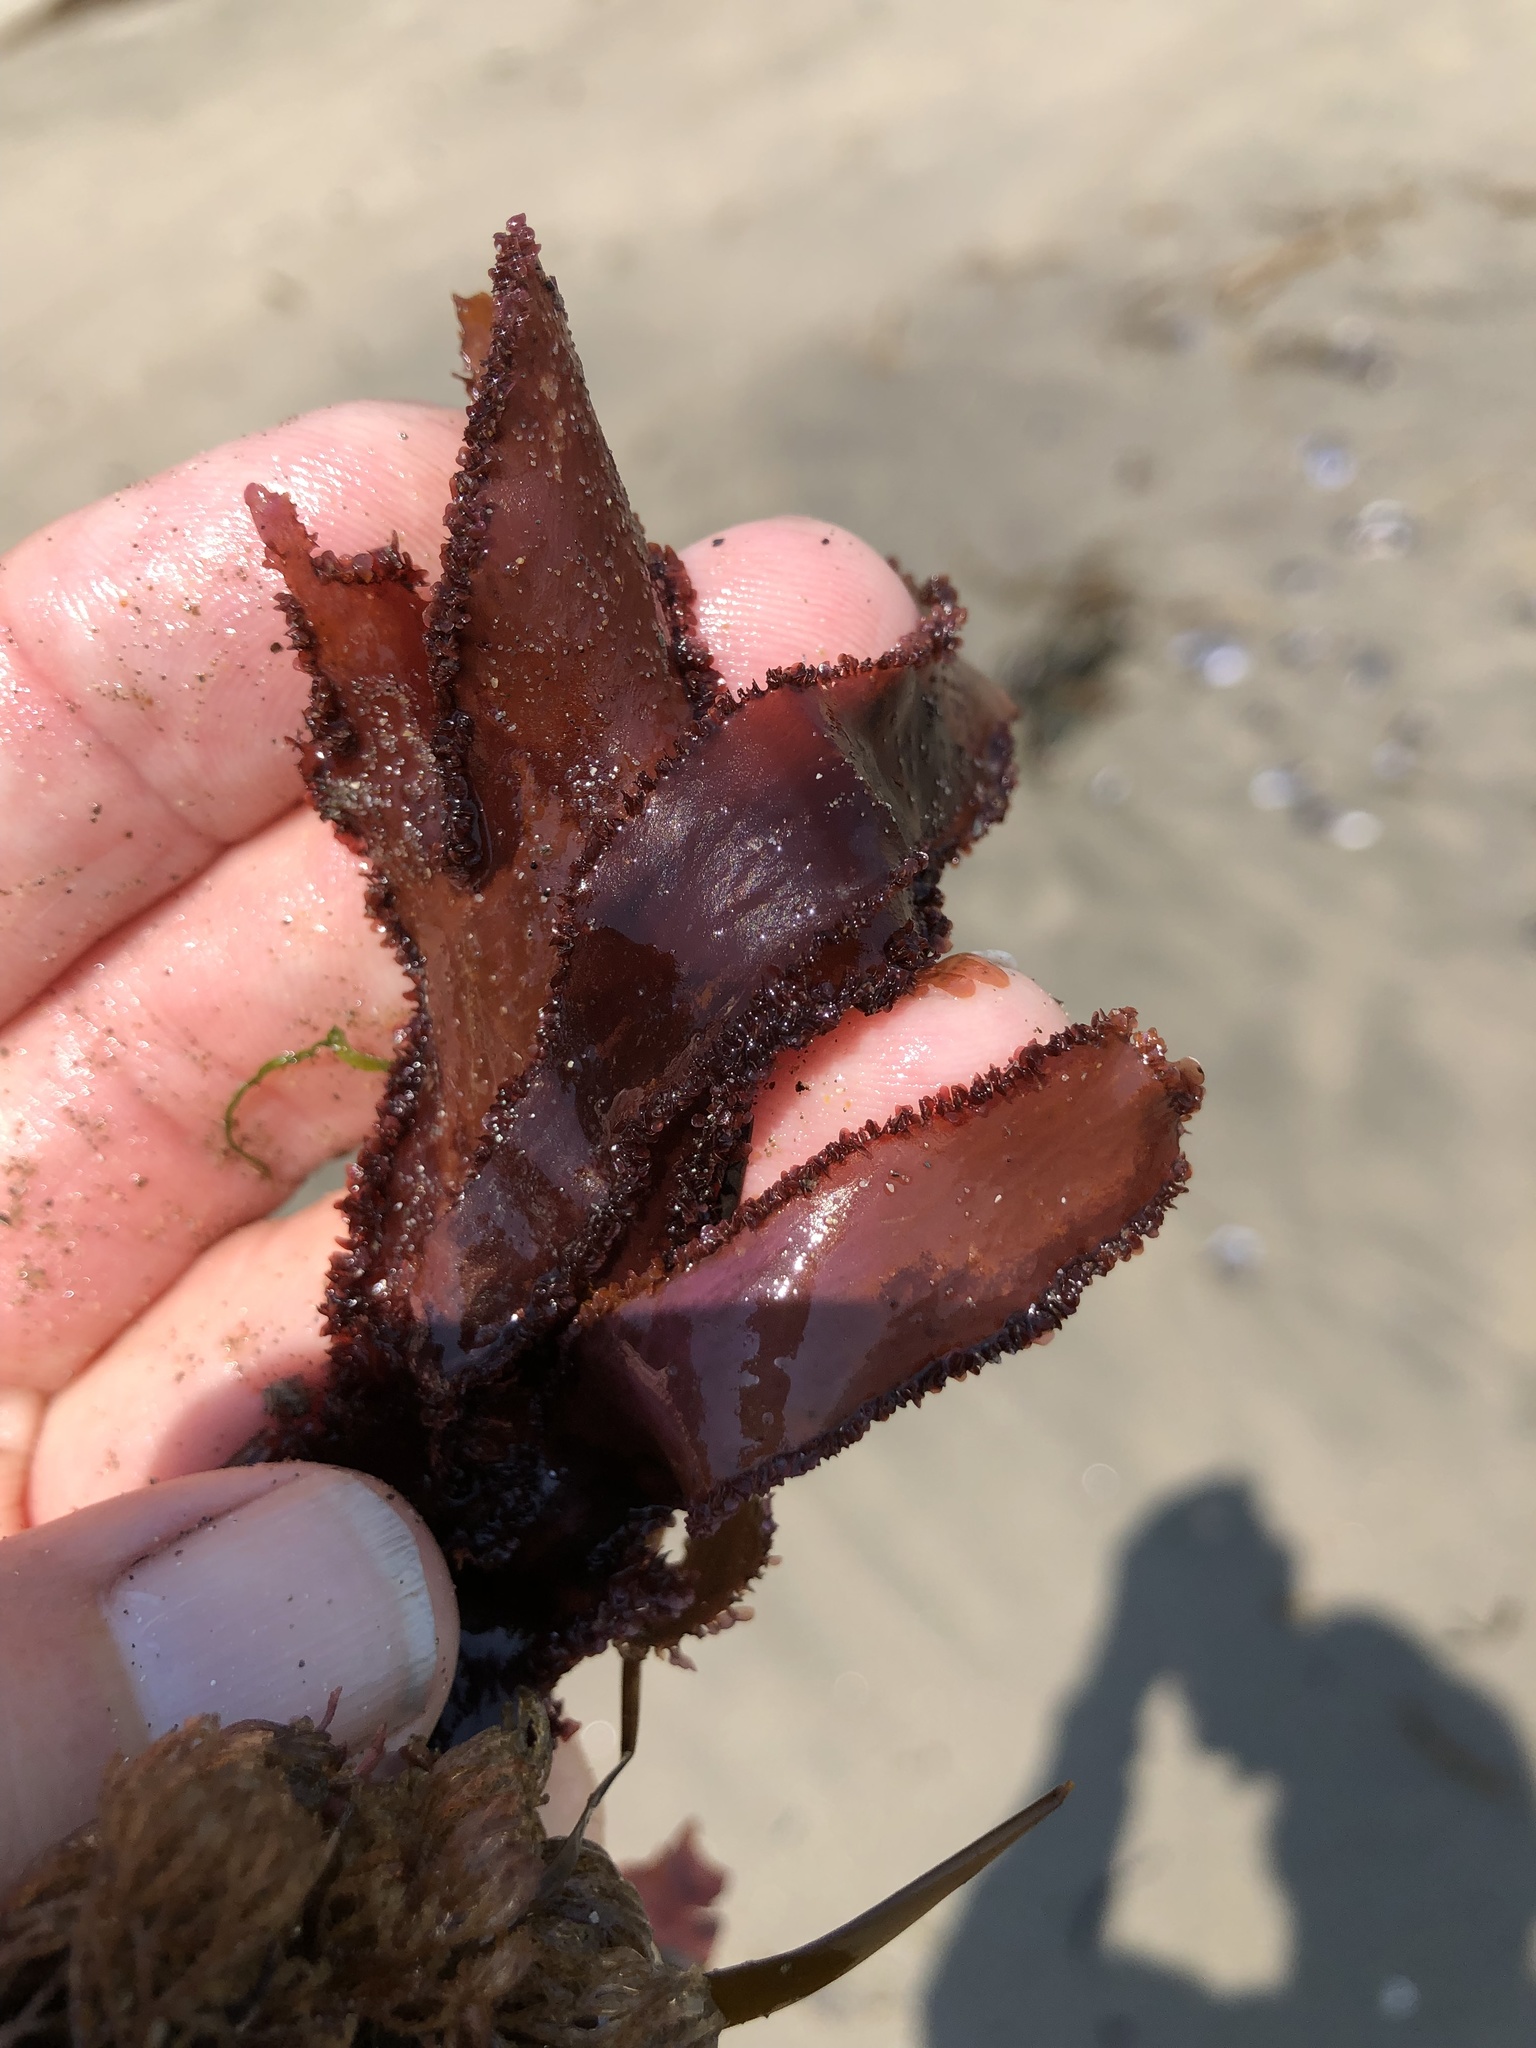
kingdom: Plantae
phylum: Rhodophyta
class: Florideophyceae
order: Ceramiales
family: Delesseriaceae
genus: Cryptopleura
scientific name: Cryptopleura ruprechtiana
